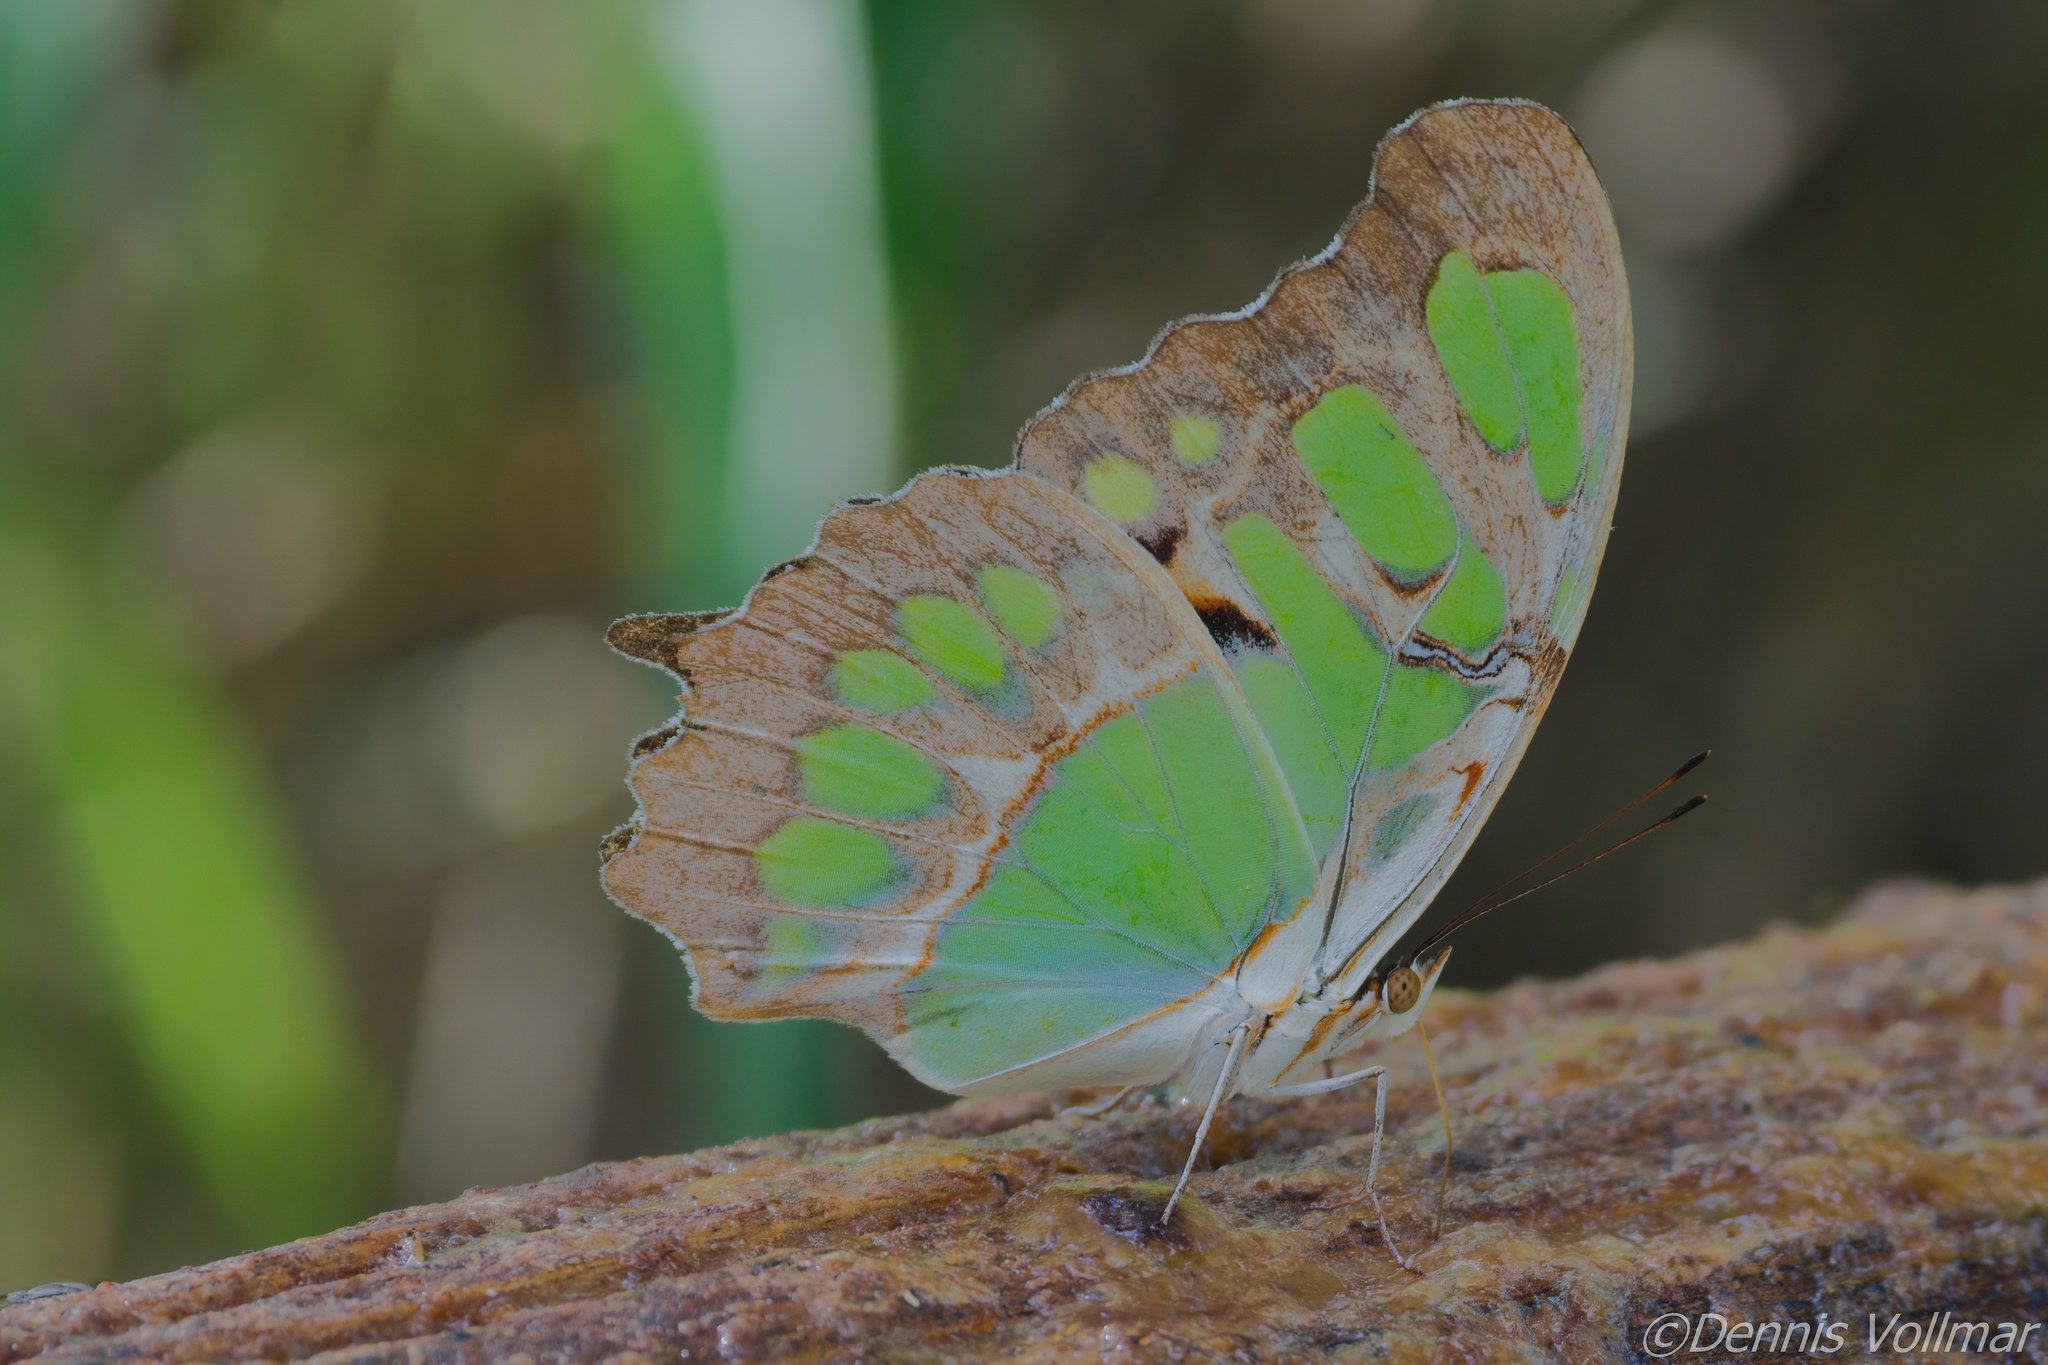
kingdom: Animalia
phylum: Arthropoda
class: Insecta
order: Lepidoptera
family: Nymphalidae
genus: Siproeta
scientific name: Siproeta stelenes
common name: Malachite
